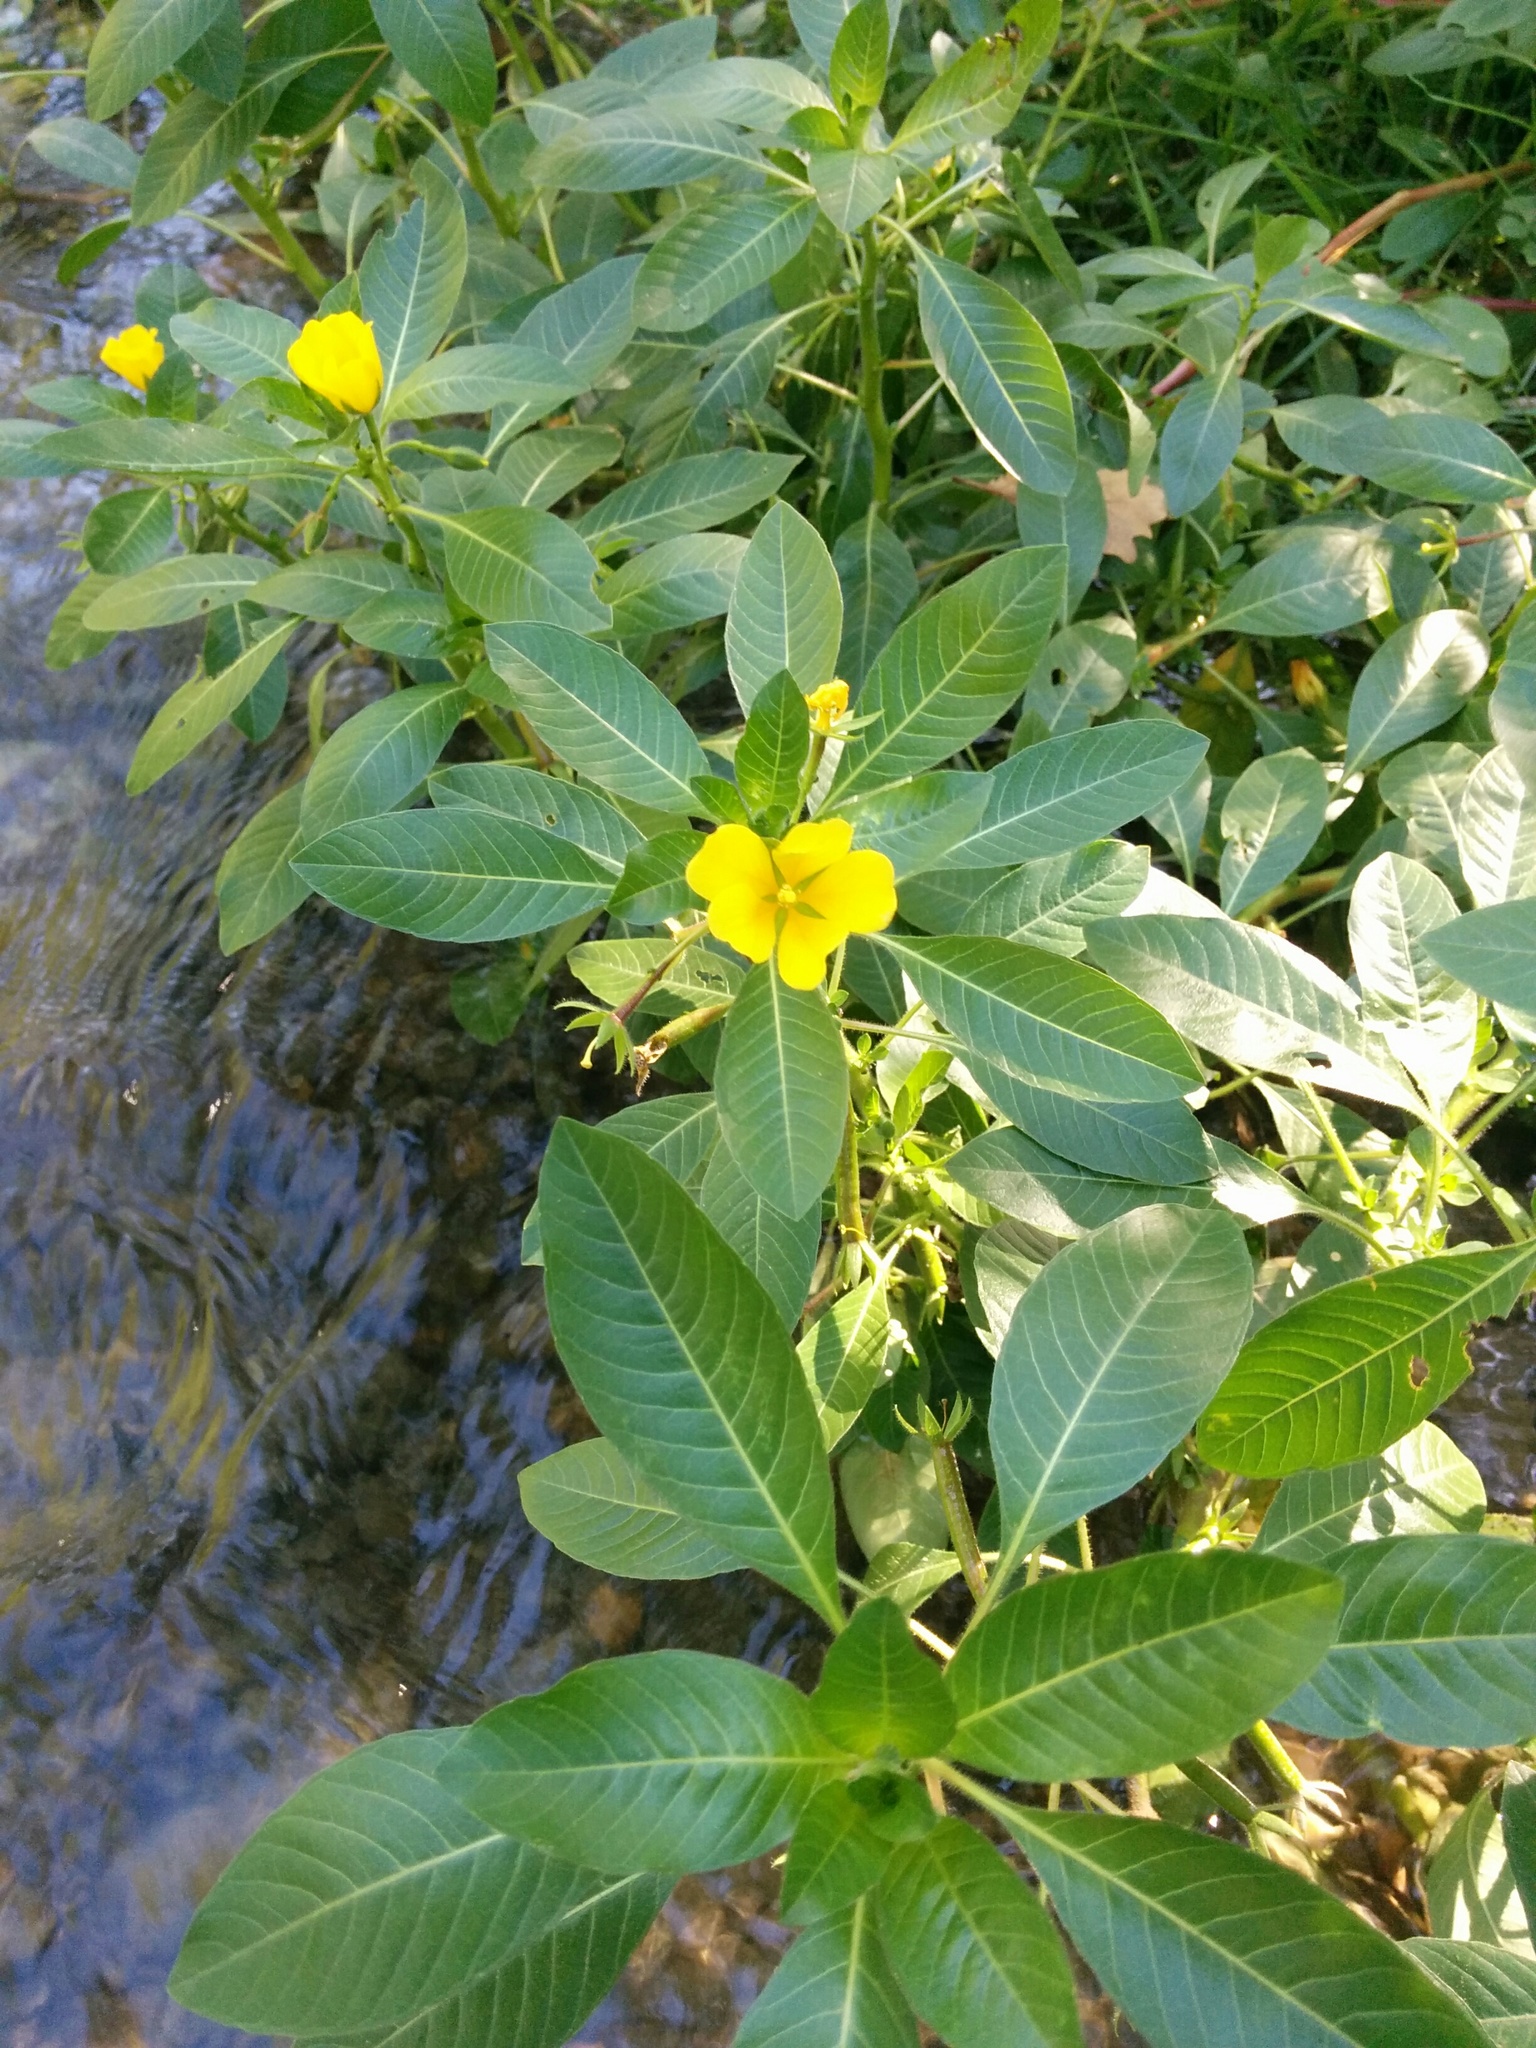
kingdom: Plantae
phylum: Tracheophyta
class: Magnoliopsida
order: Myrtales
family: Onagraceae
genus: Ludwigia
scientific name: Ludwigia peploides
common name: Floating primrose-willow
